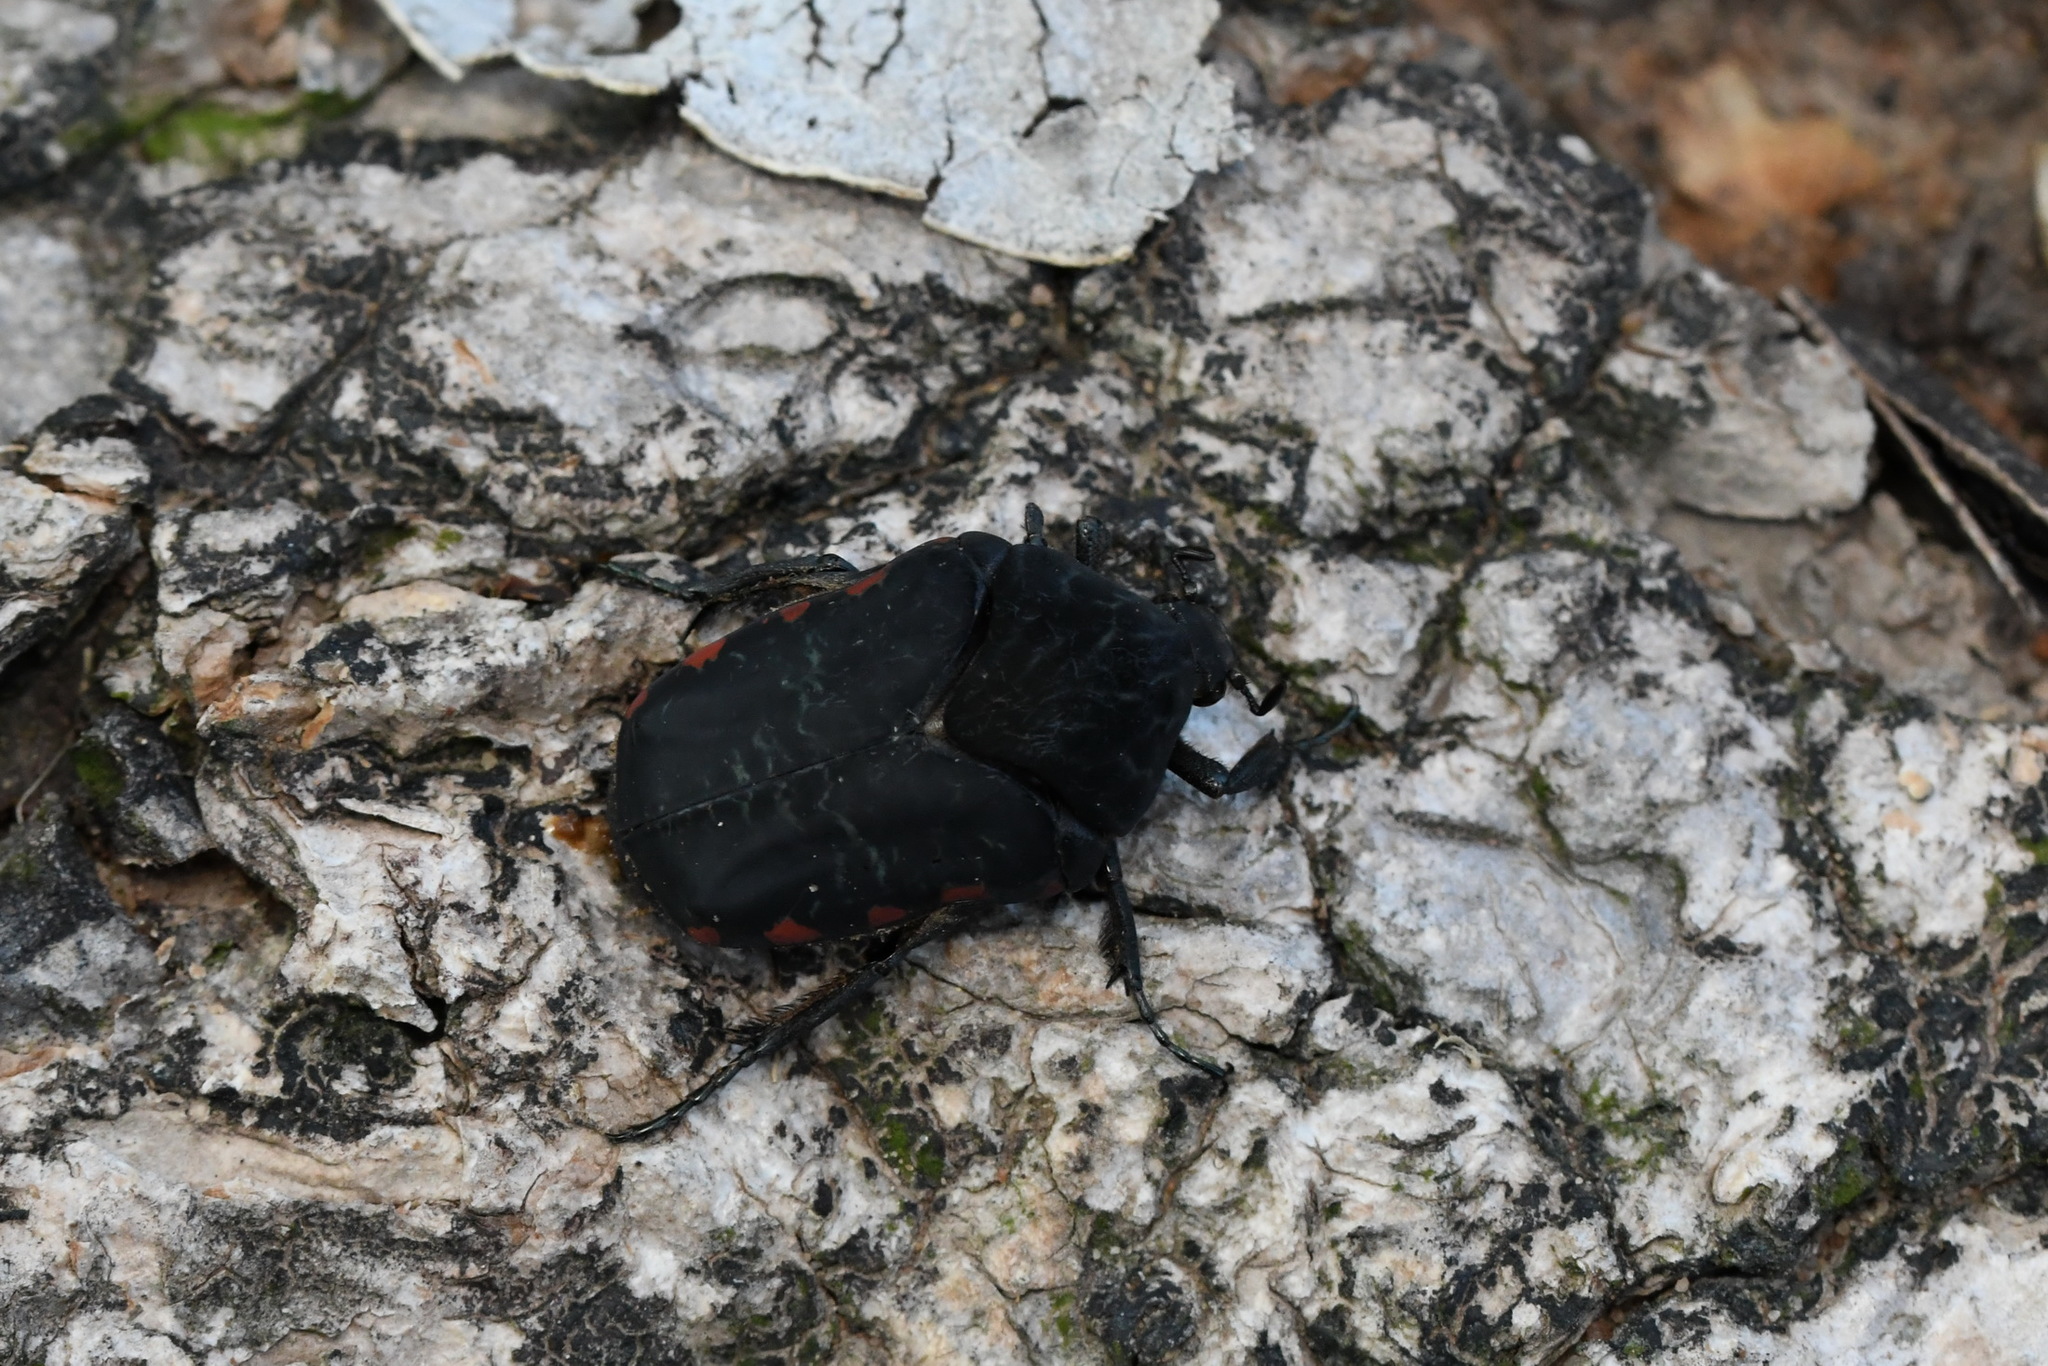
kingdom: Animalia
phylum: Arthropoda
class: Insecta
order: Coleoptera
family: Scarabaeidae
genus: Gymnetis
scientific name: Gymnetis rufilatris
